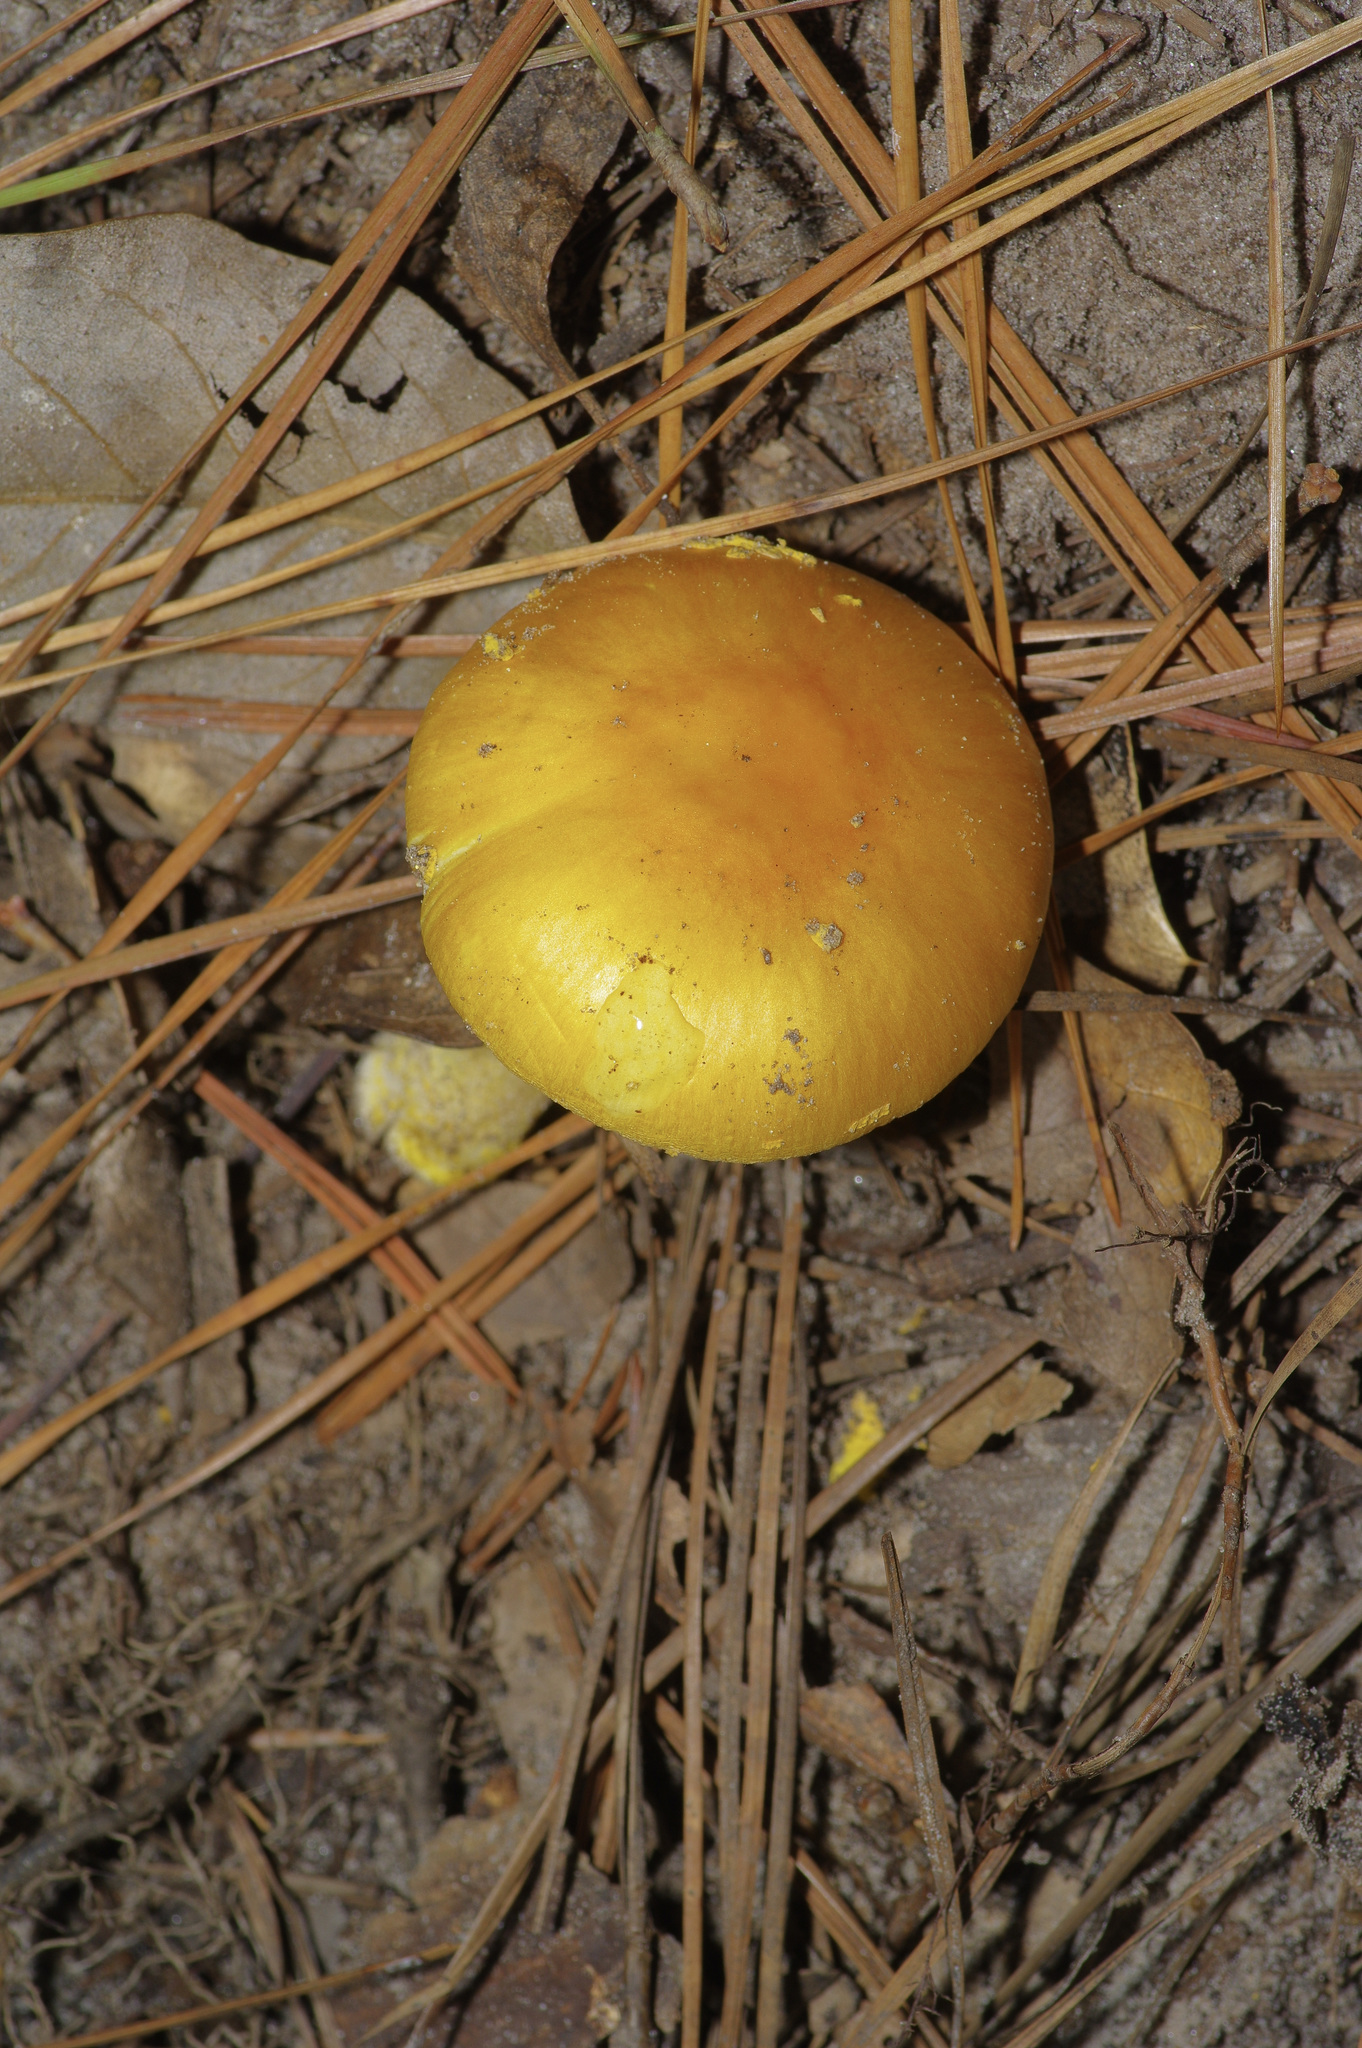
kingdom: Fungi
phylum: Basidiomycota
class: Agaricomycetes
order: Agaricales
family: Amanitaceae
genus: Amanita
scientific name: Amanita flavoconia
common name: Yellow patches
